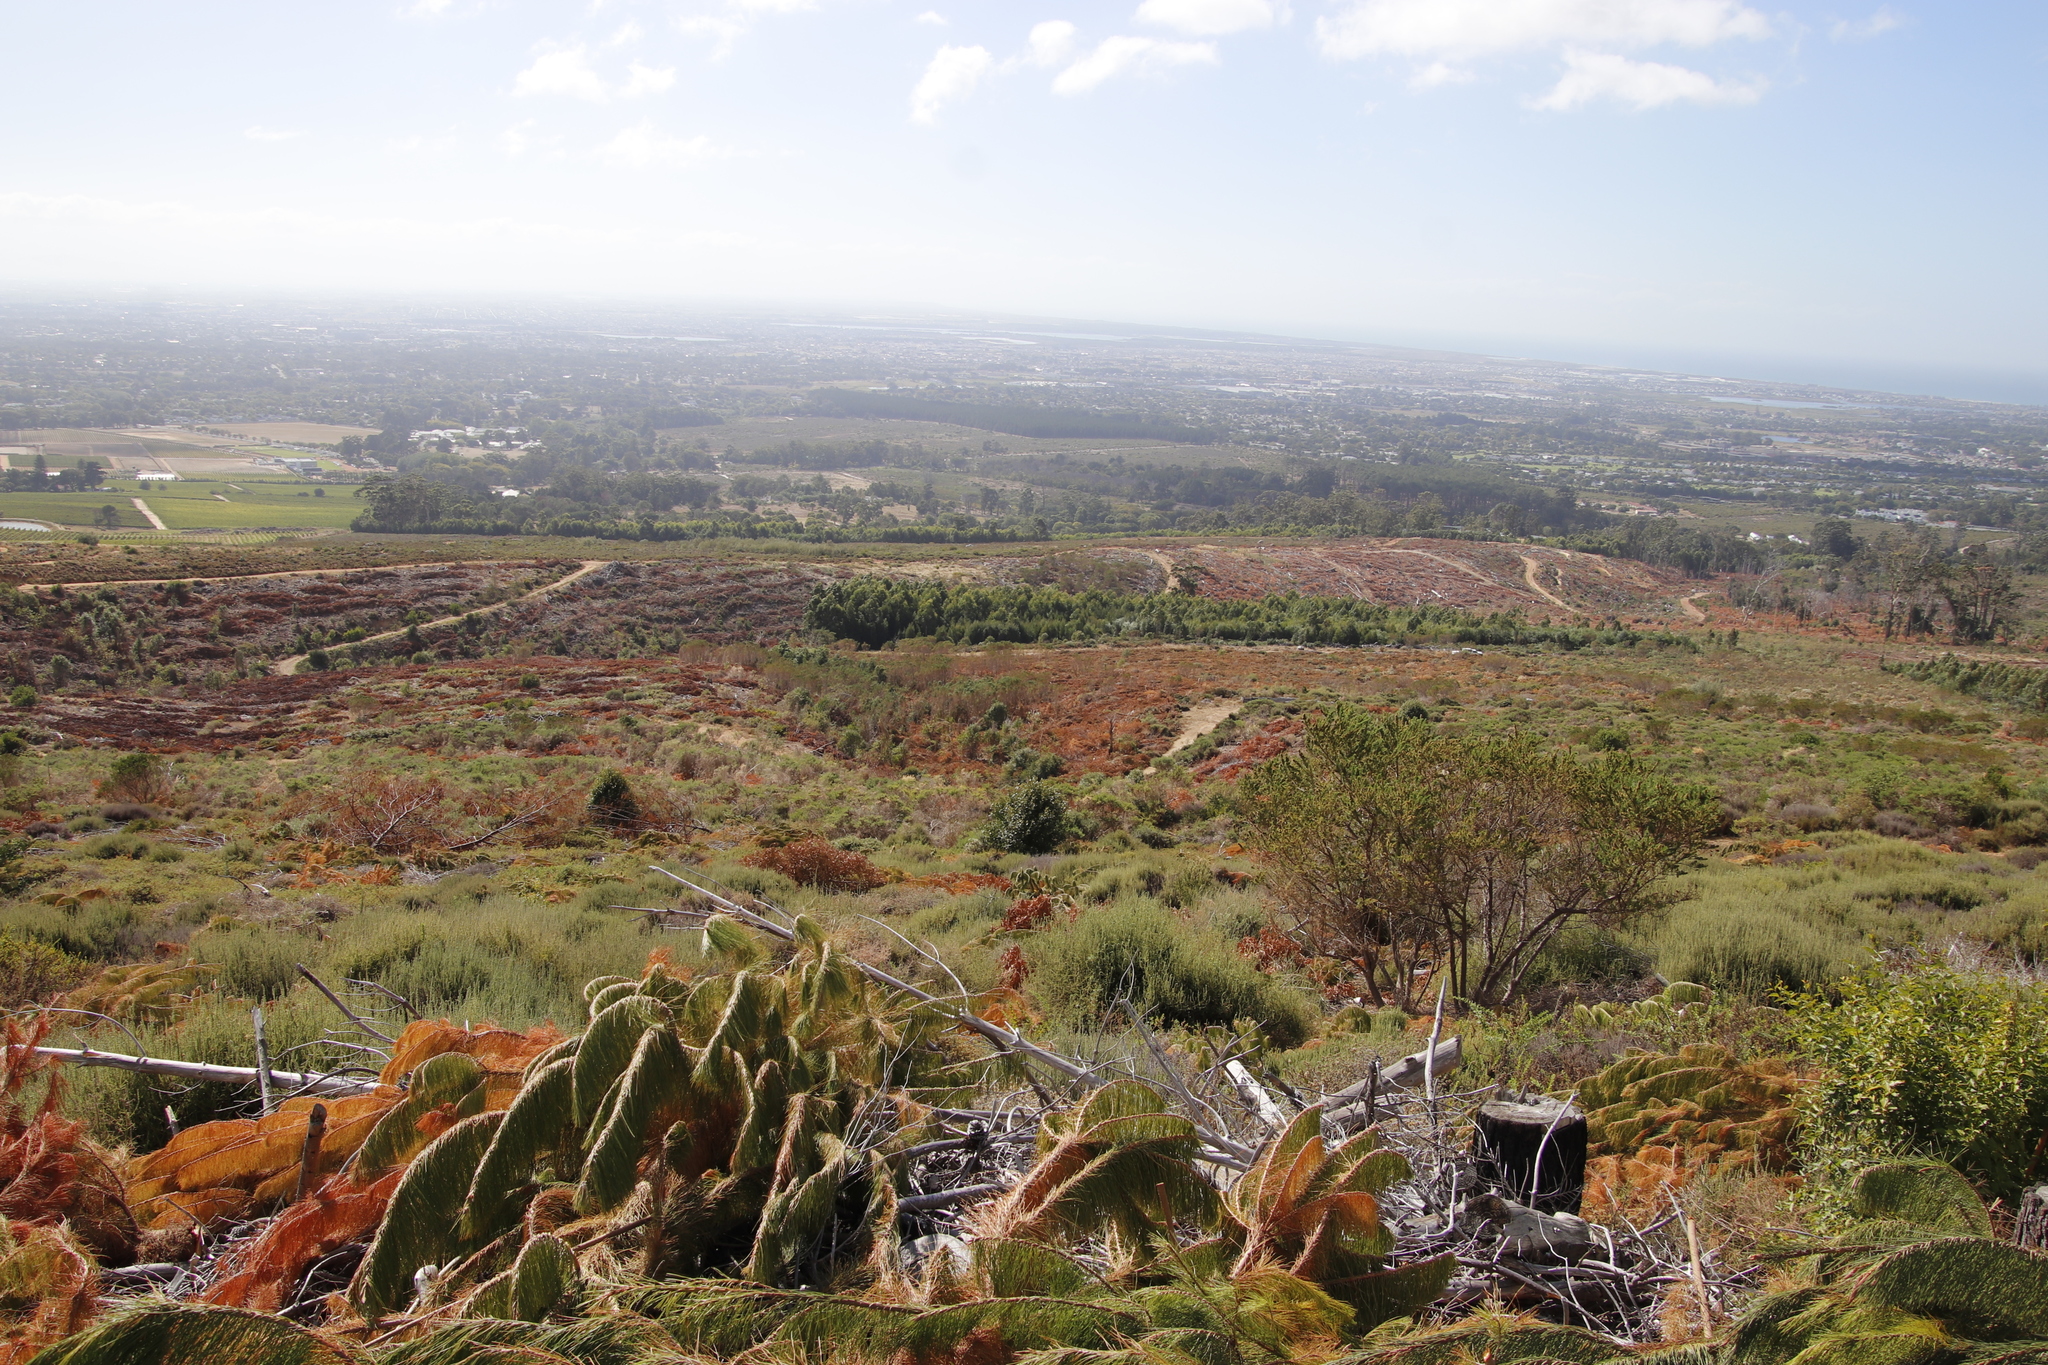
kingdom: Plantae
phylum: Tracheophyta
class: Magnoliopsida
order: Fabales
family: Fabaceae
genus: Psoralea
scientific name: Psoralea pinnata
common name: African scurfpea
